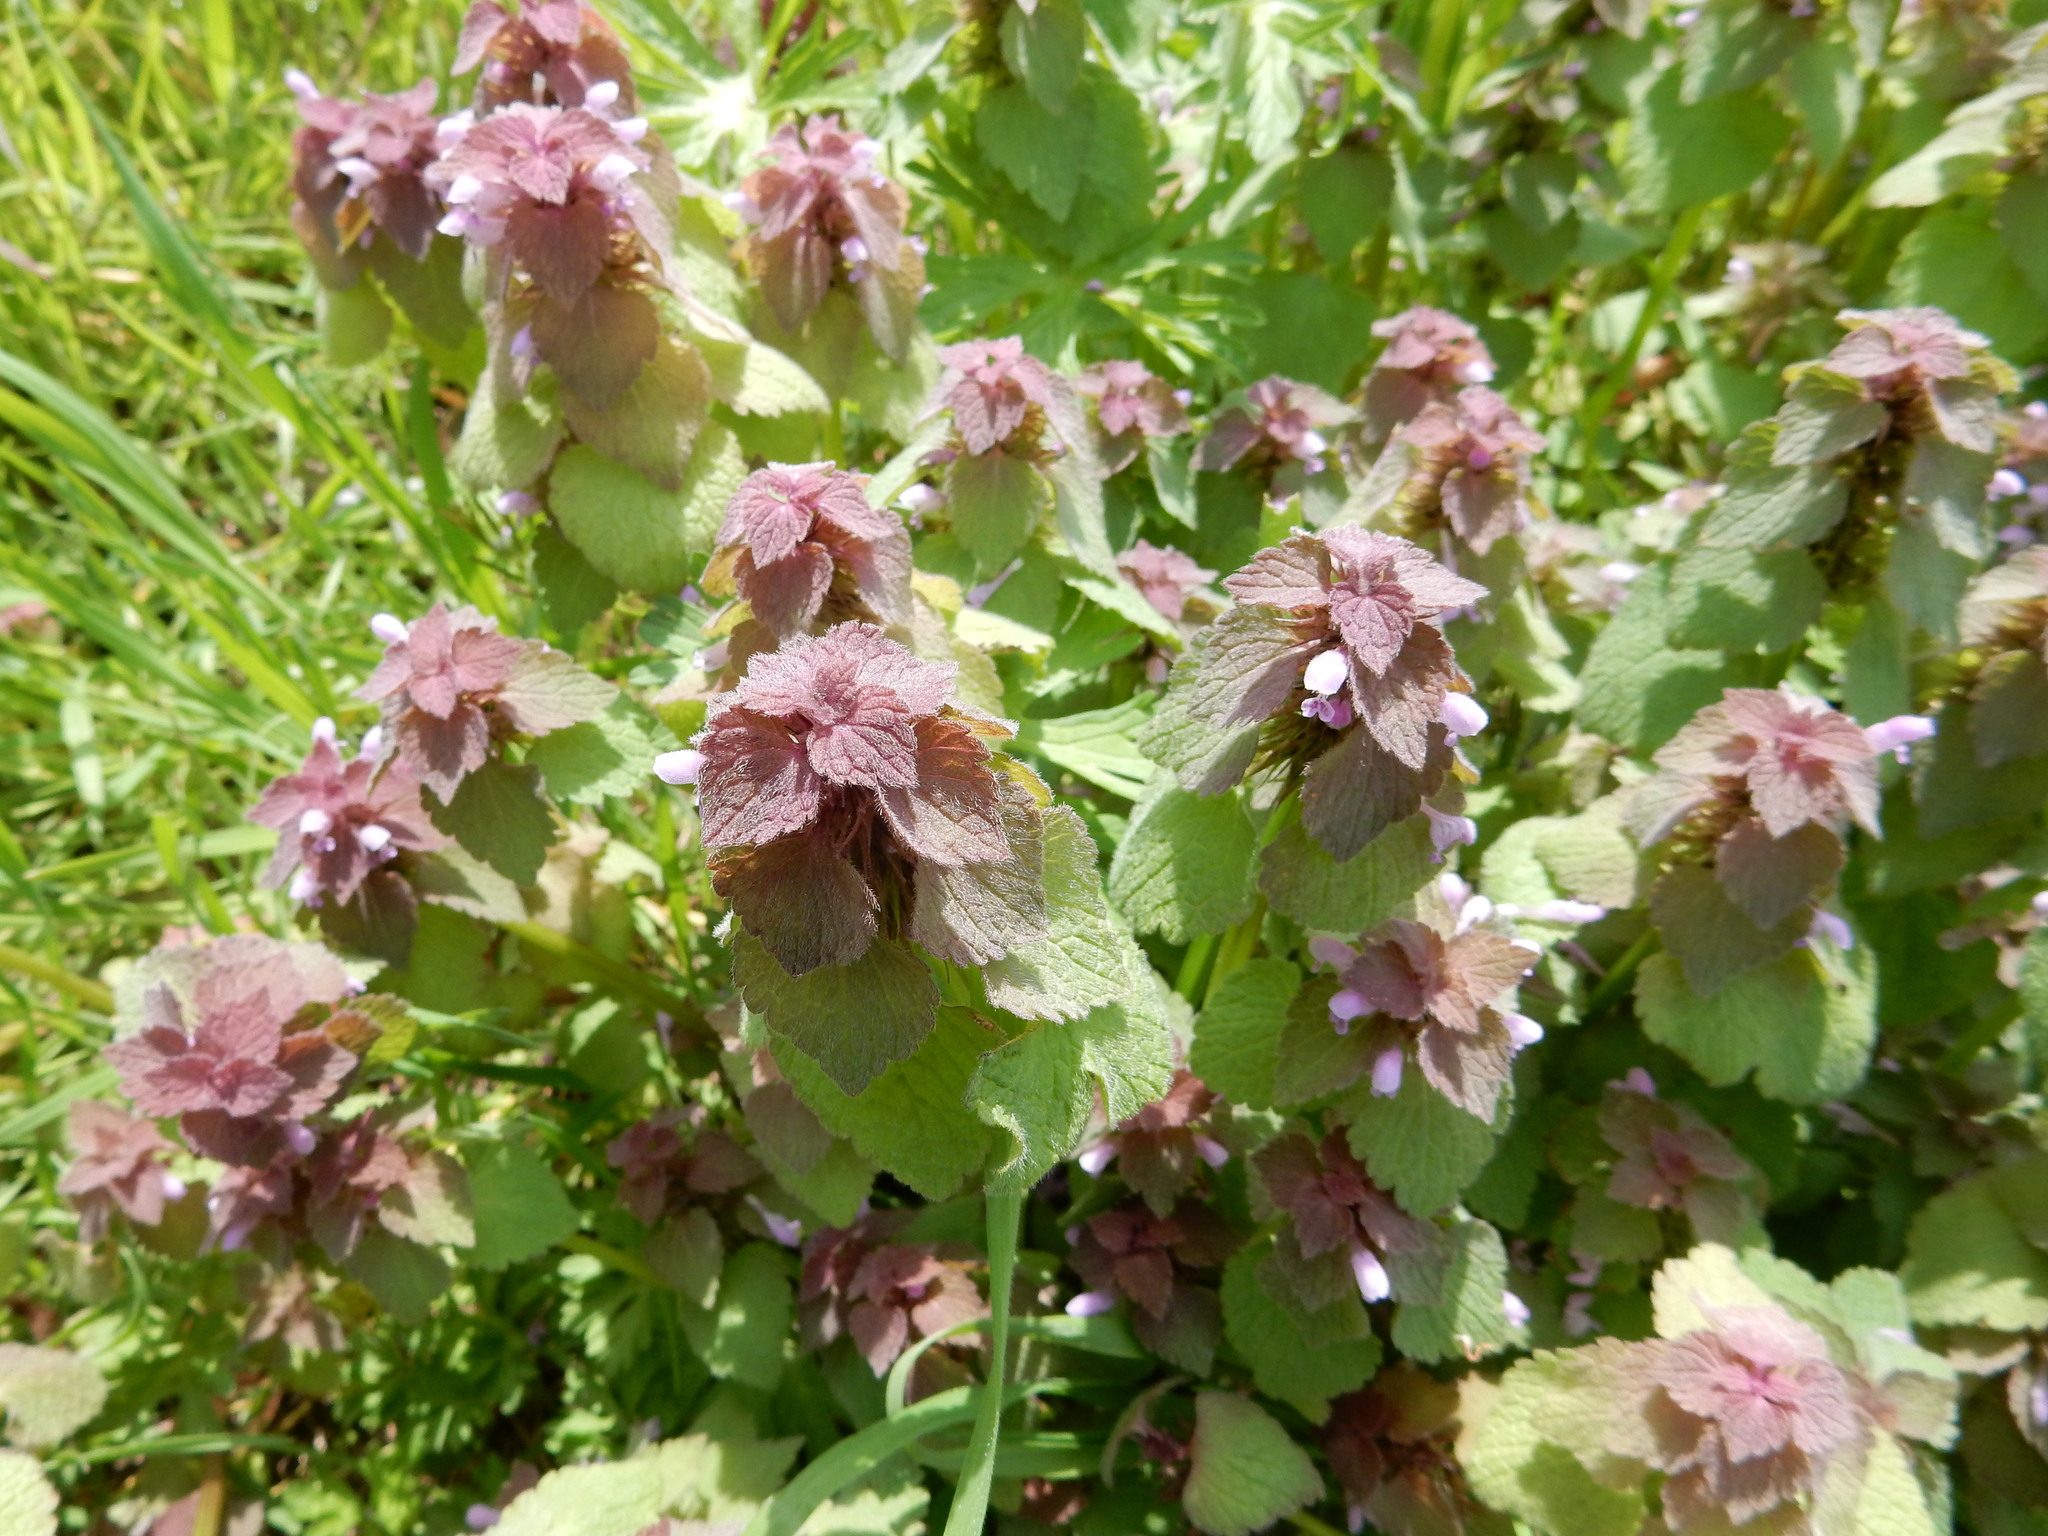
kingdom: Plantae
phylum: Tracheophyta
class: Magnoliopsida
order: Lamiales
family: Lamiaceae
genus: Lamium
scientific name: Lamium purpureum
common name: Red dead-nettle
